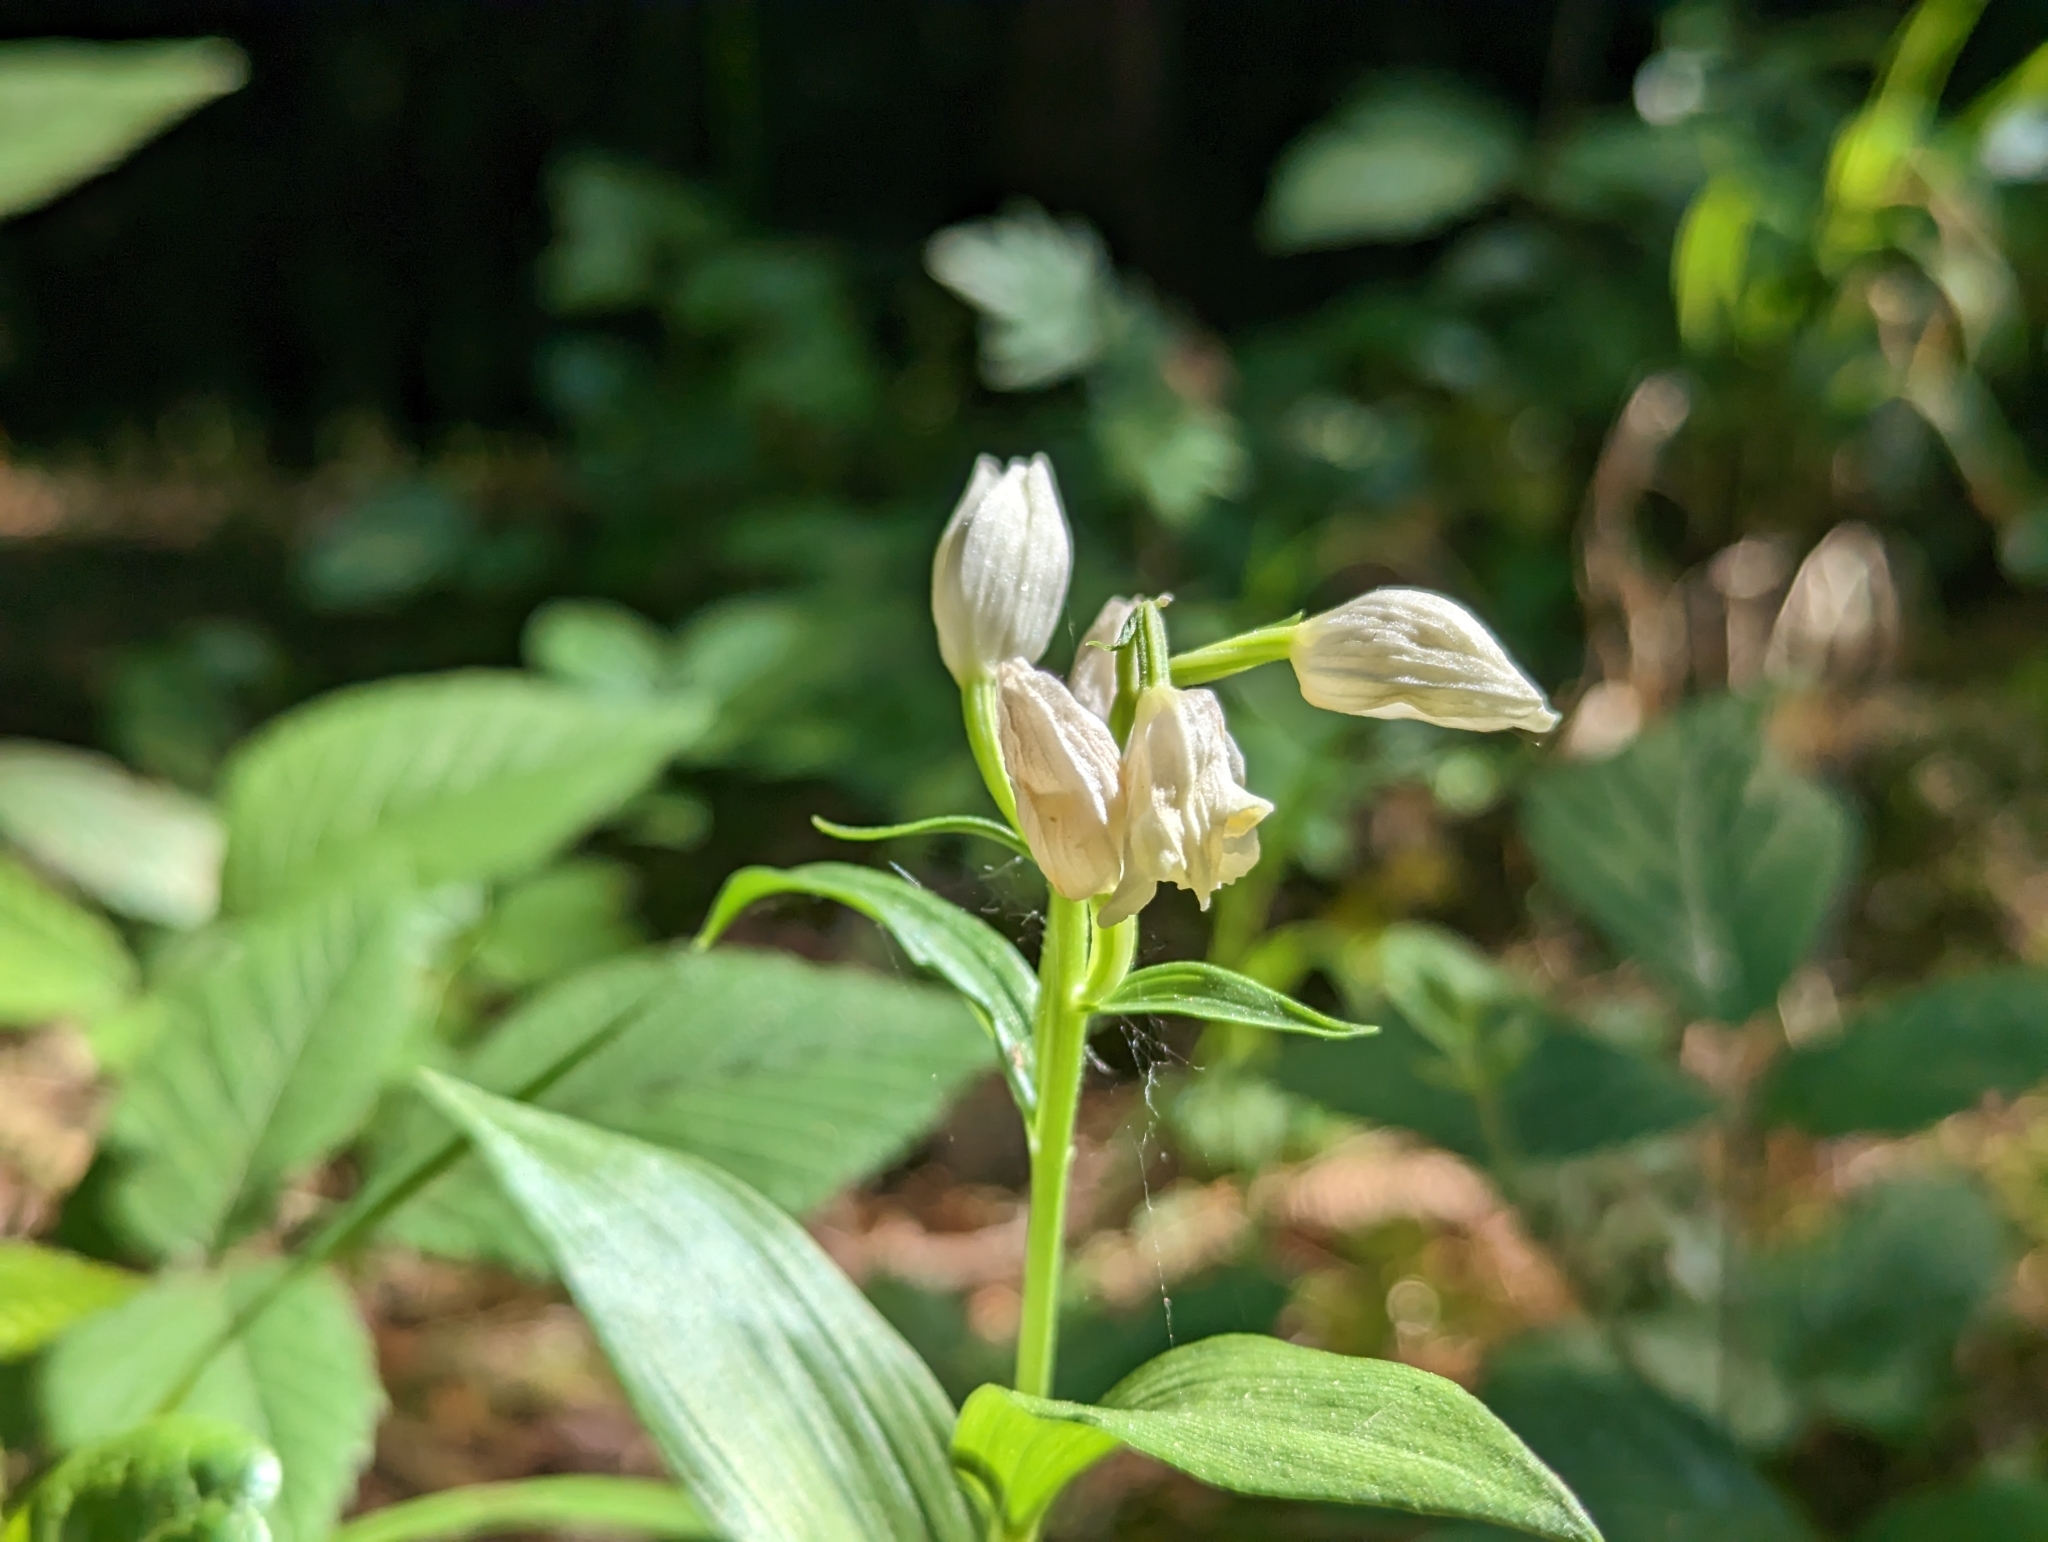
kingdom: Plantae
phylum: Tracheophyta
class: Liliopsida
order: Asparagales
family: Orchidaceae
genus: Cephalanthera
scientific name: Cephalanthera damasonium
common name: White helleborine
